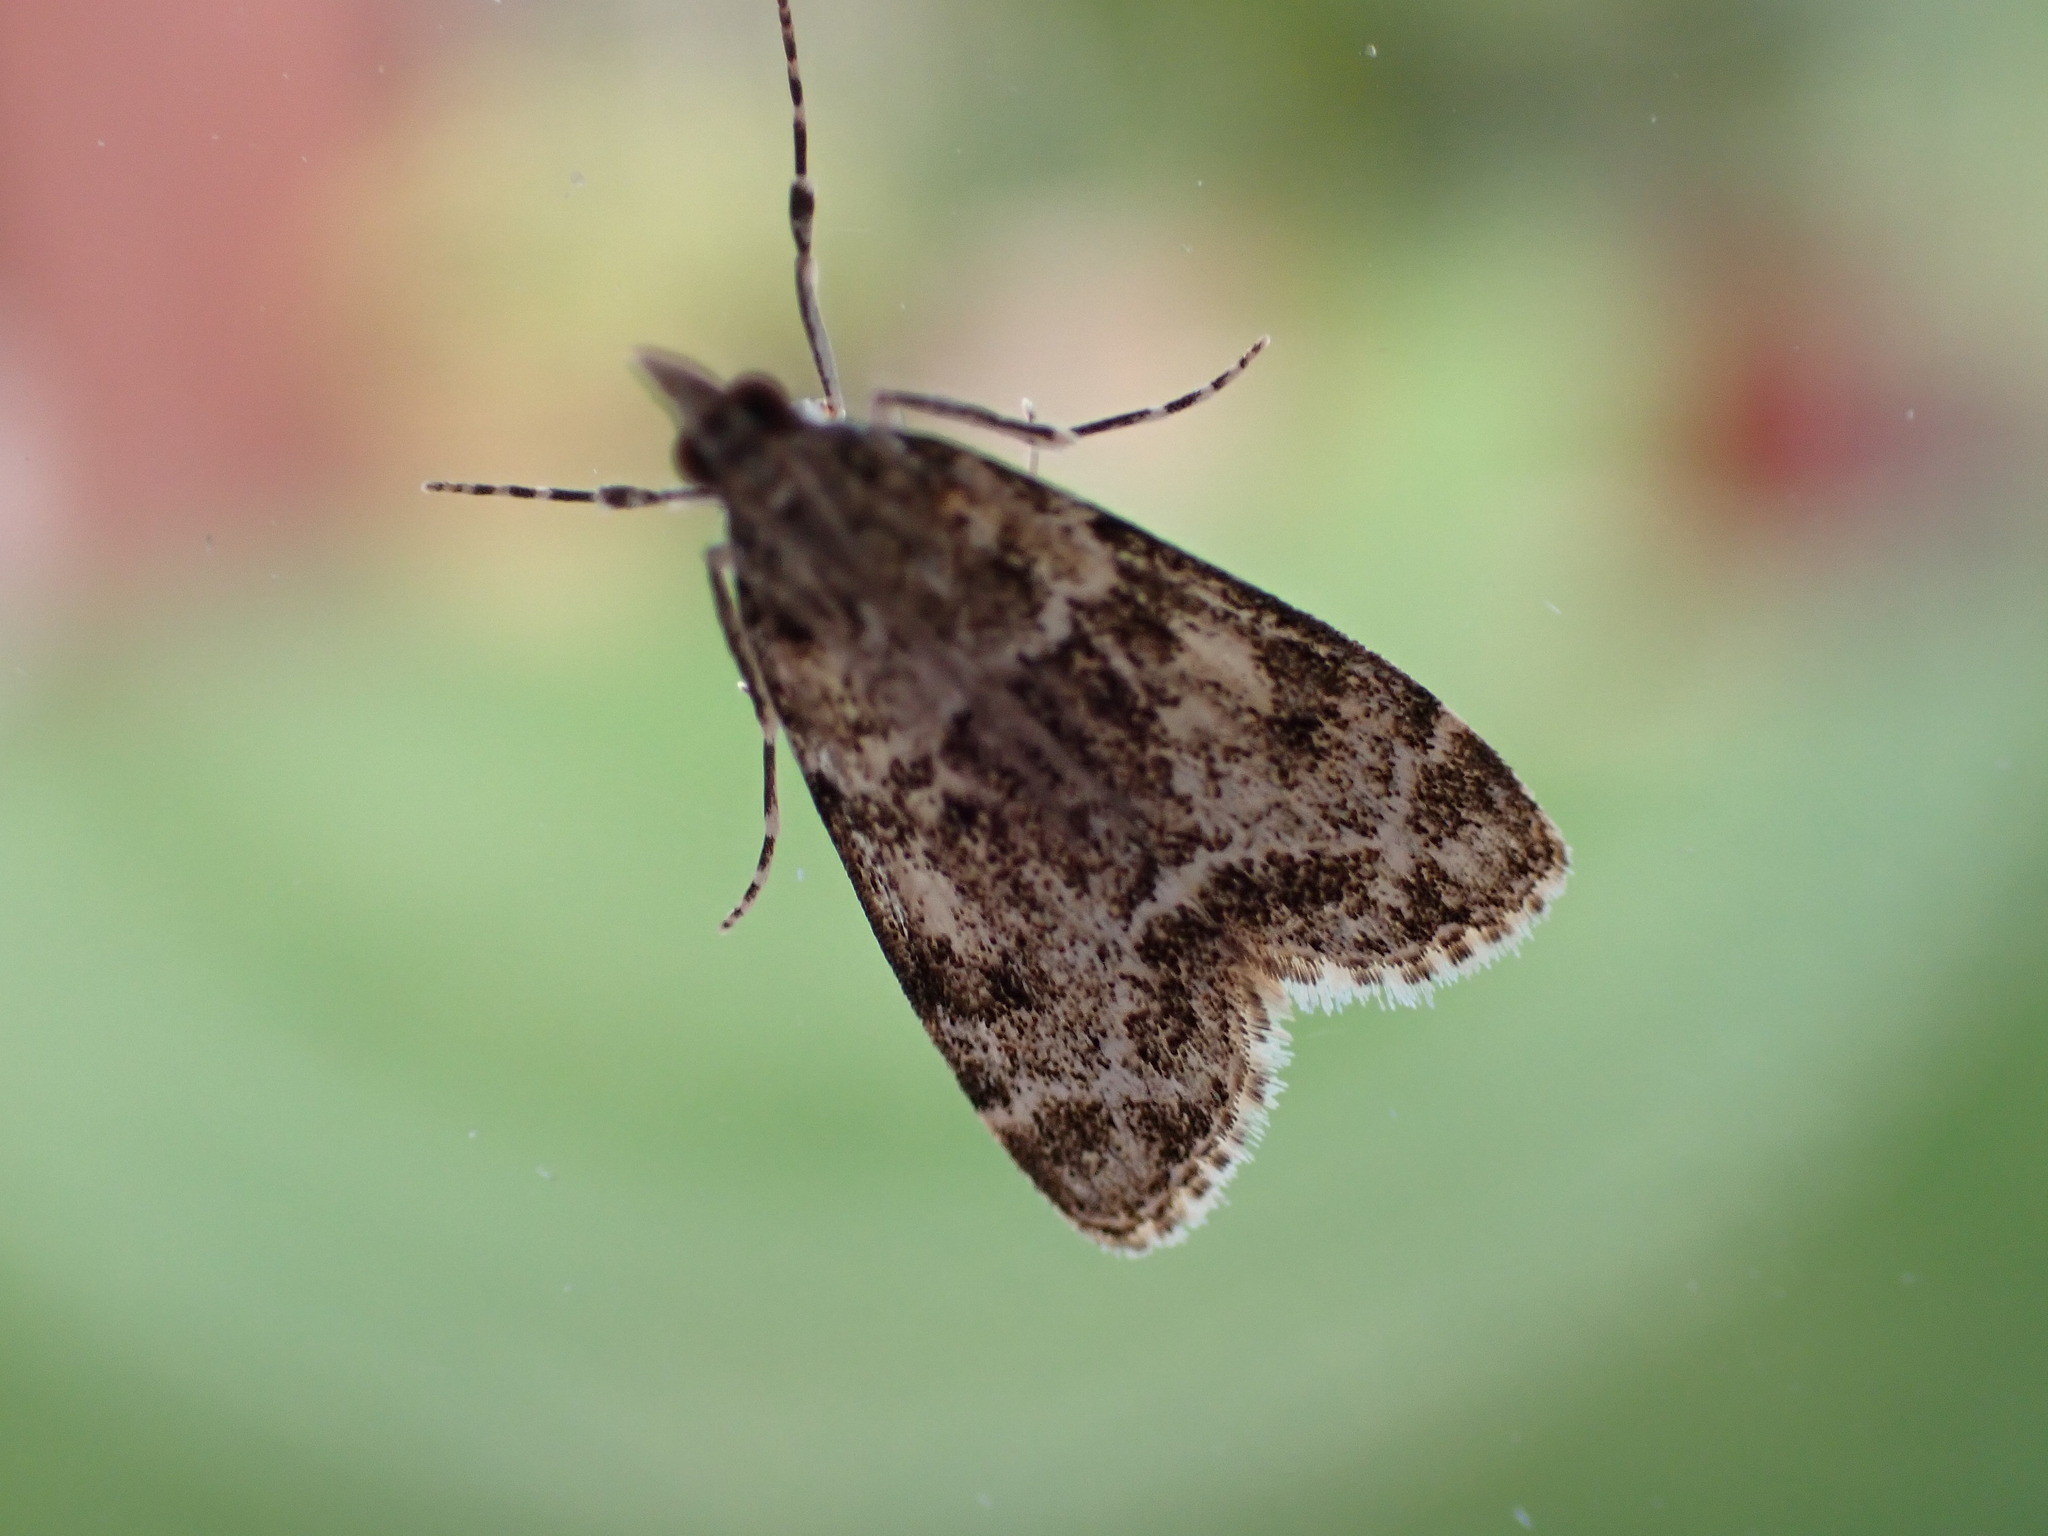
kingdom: Animalia
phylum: Arthropoda
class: Insecta
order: Lepidoptera
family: Crambidae
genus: Eudonia
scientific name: Eudonia mercurella
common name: Small grey
